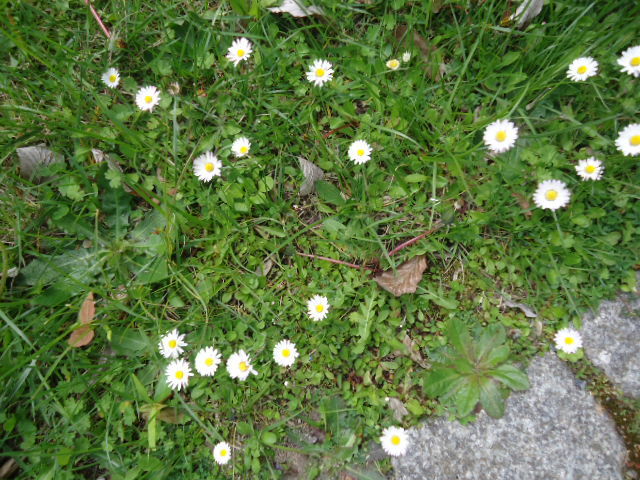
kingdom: Plantae
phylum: Tracheophyta
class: Magnoliopsida
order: Asterales
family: Asteraceae
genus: Bellis
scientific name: Bellis perennis
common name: Lawndaisy
